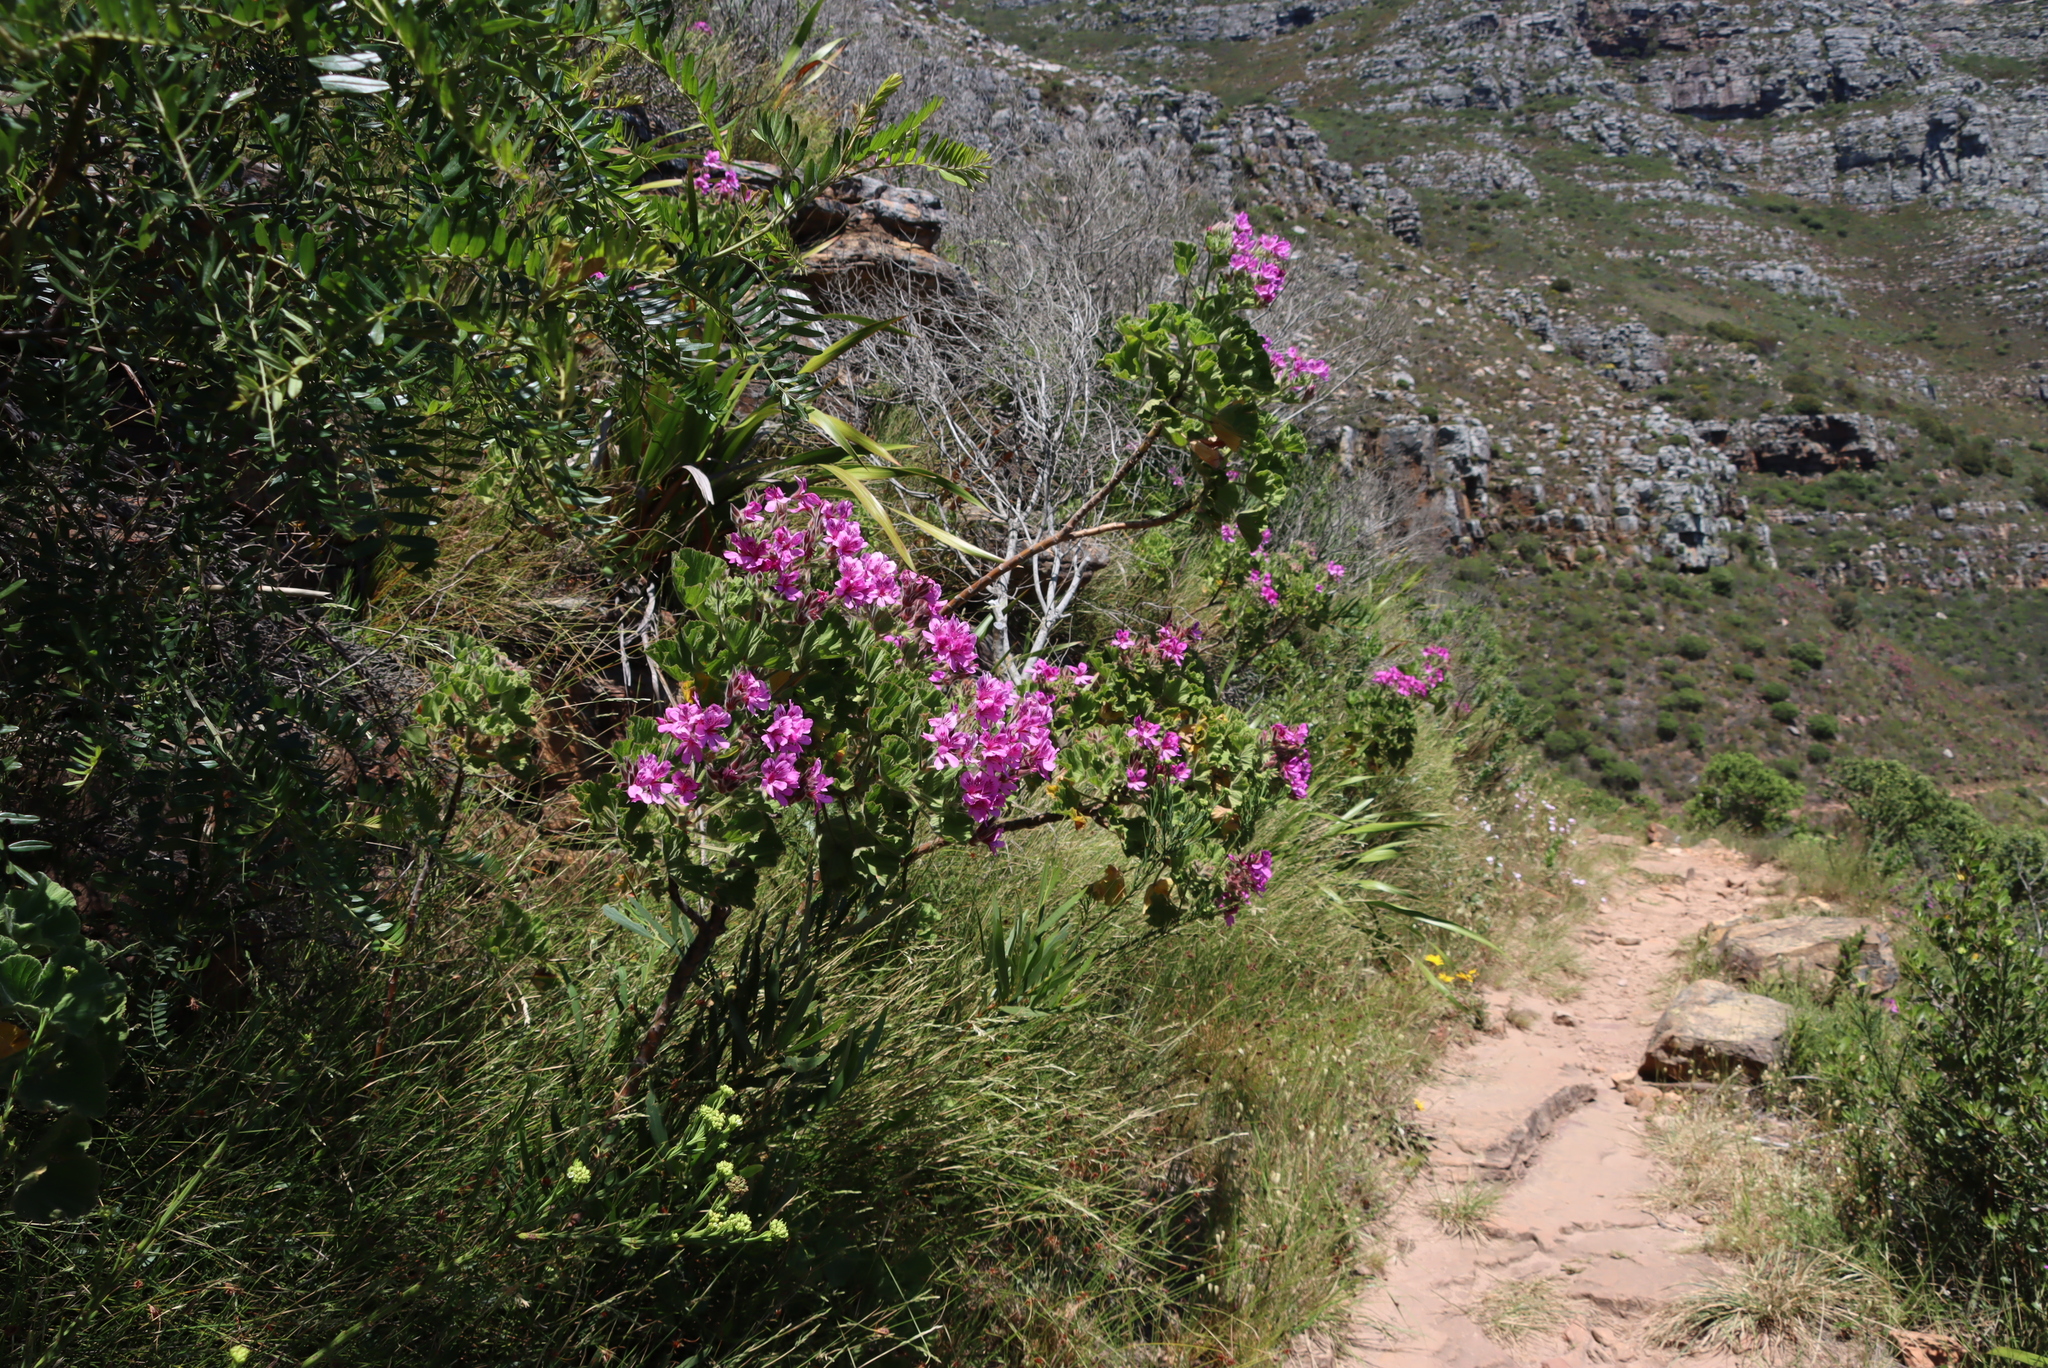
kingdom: Plantae
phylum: Tracheophyta
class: Magnoliopsida
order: Geraniales
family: Geraniaceae
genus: Pelargonium
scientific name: Pelargonium cucullatum
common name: Tree pelargonium
